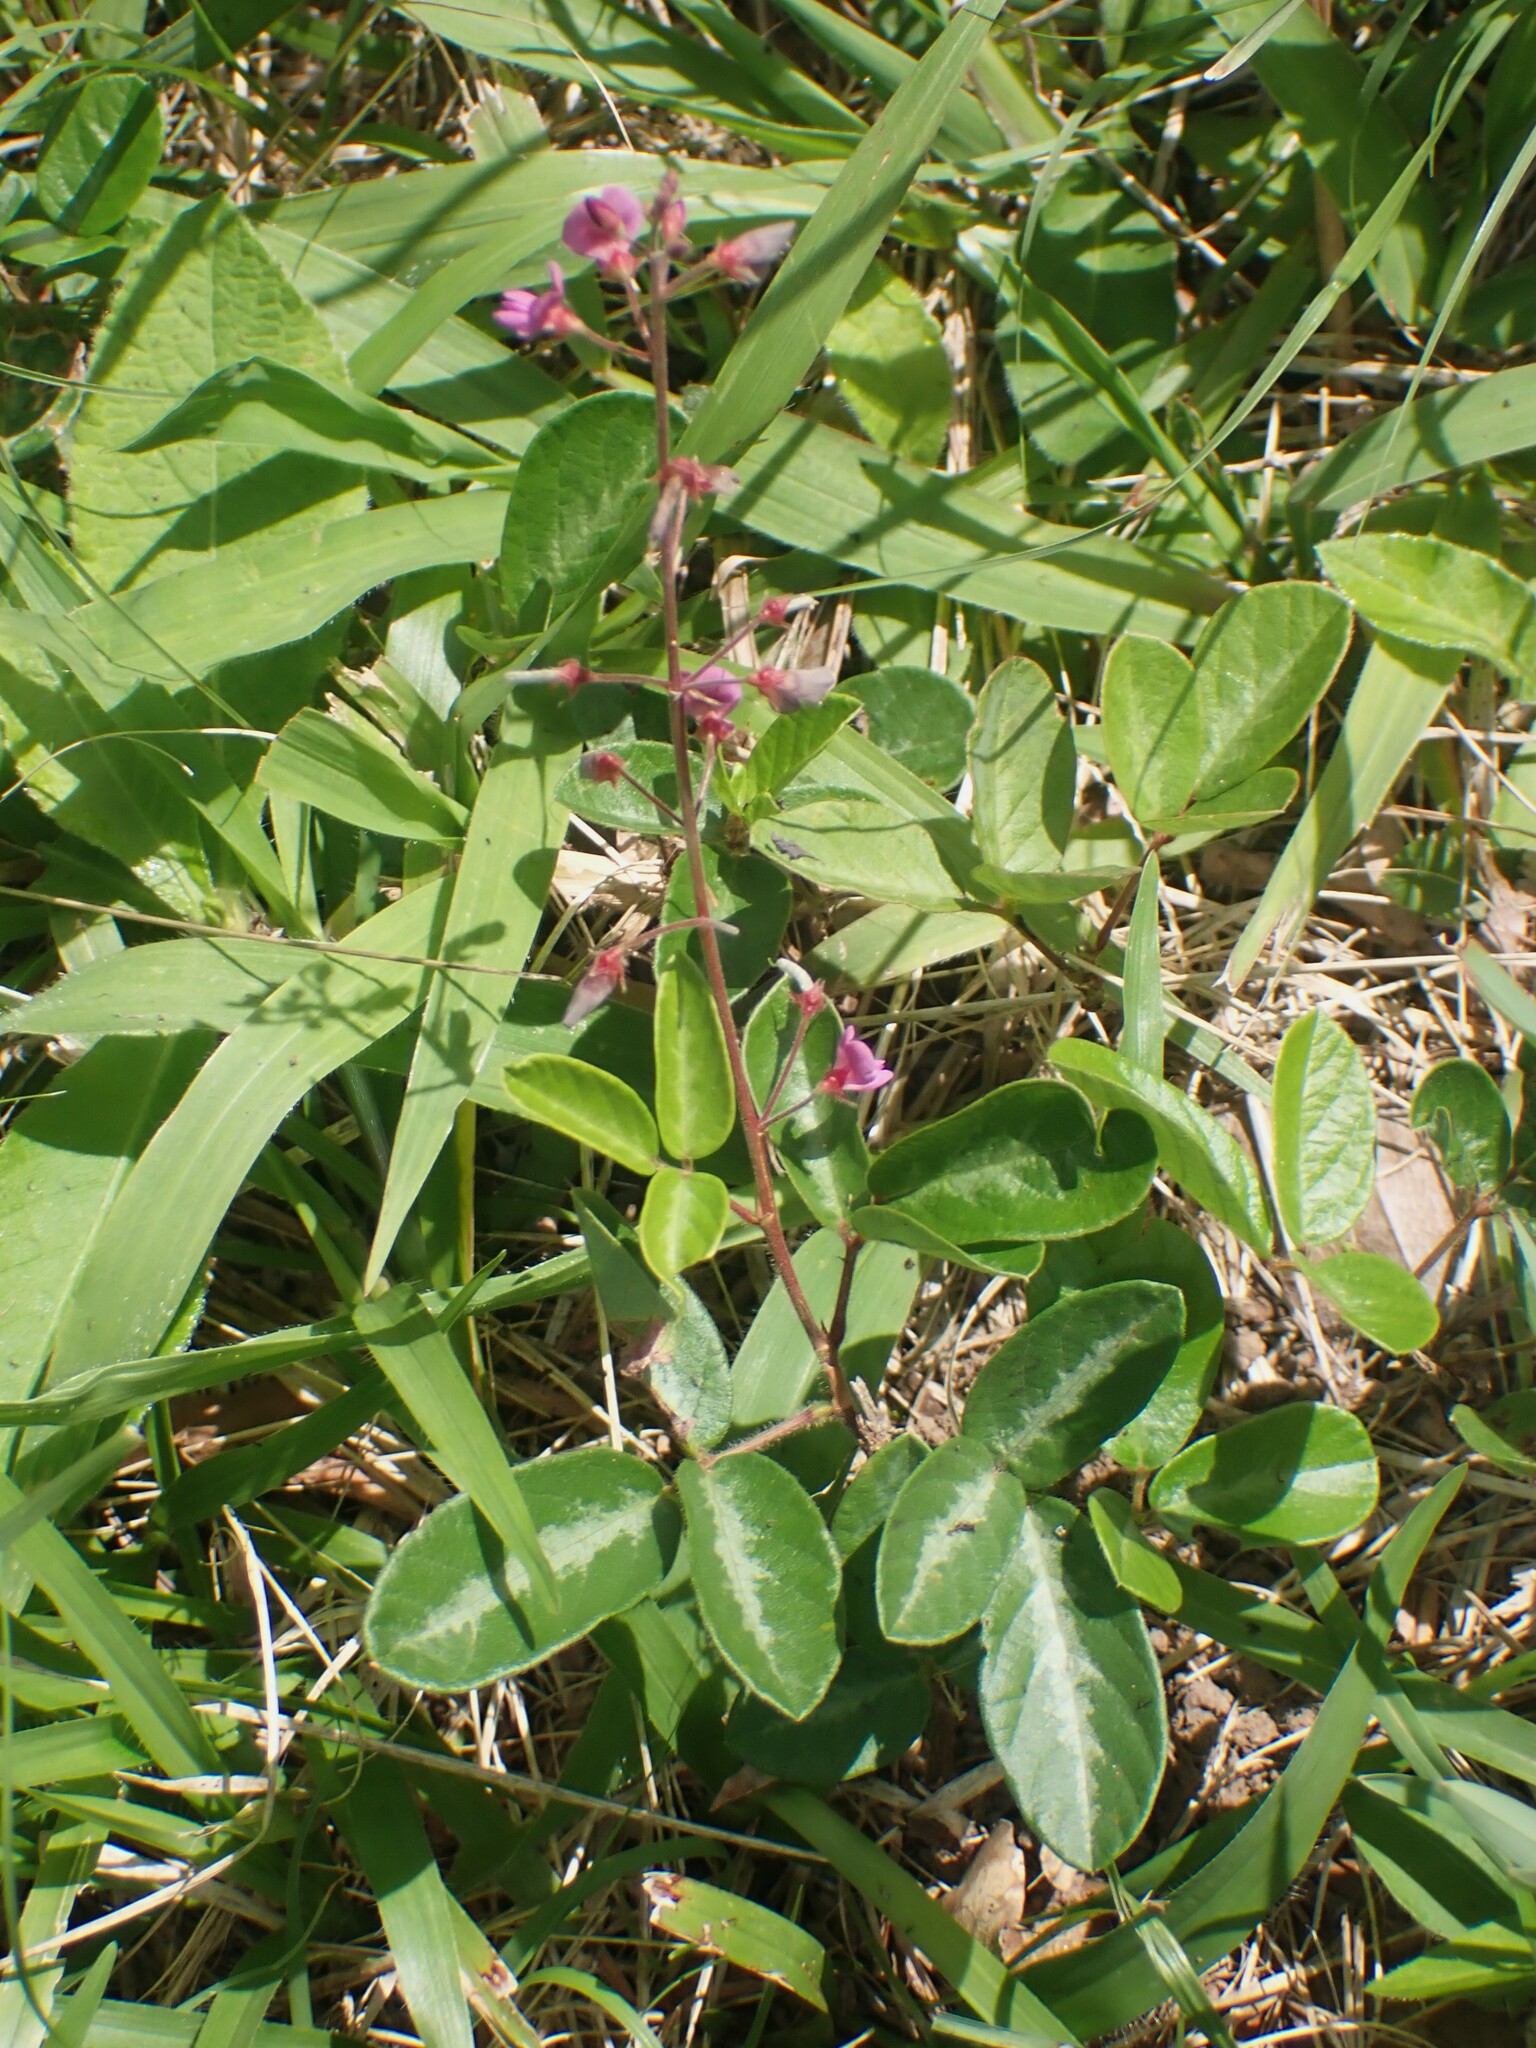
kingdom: Plantae
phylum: Tracheophyta
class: Magnoliopsida
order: Fabales
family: Fabaceae
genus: Desmodium
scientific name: Desmodium incanum
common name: Tickclover
